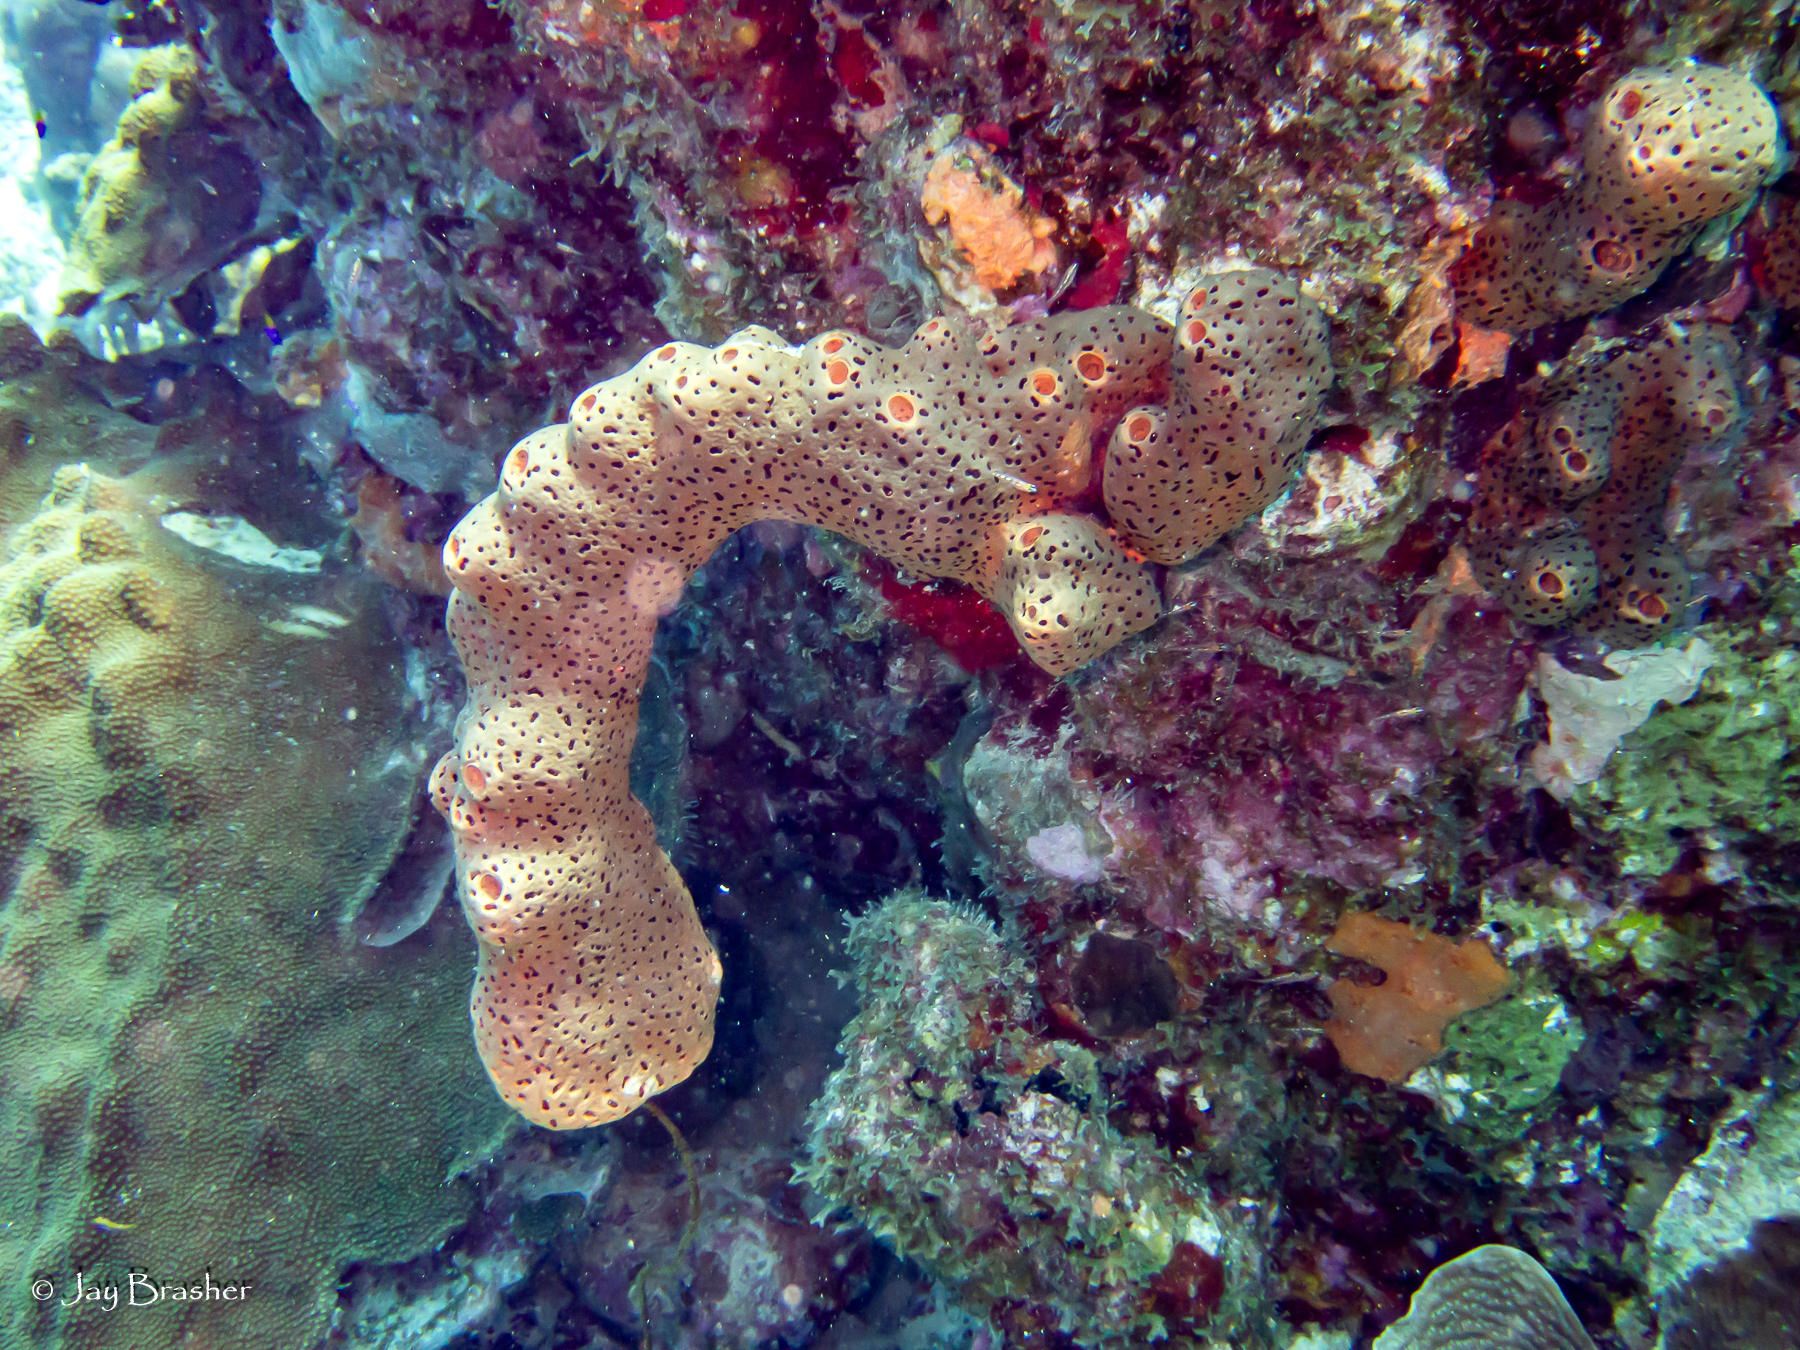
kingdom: Animalia
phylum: Cnidaria
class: Anthozoa
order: Scleractinia
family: Merulinidae
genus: Orbicella
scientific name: Orbicella faveolata
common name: Mountainous star coral
